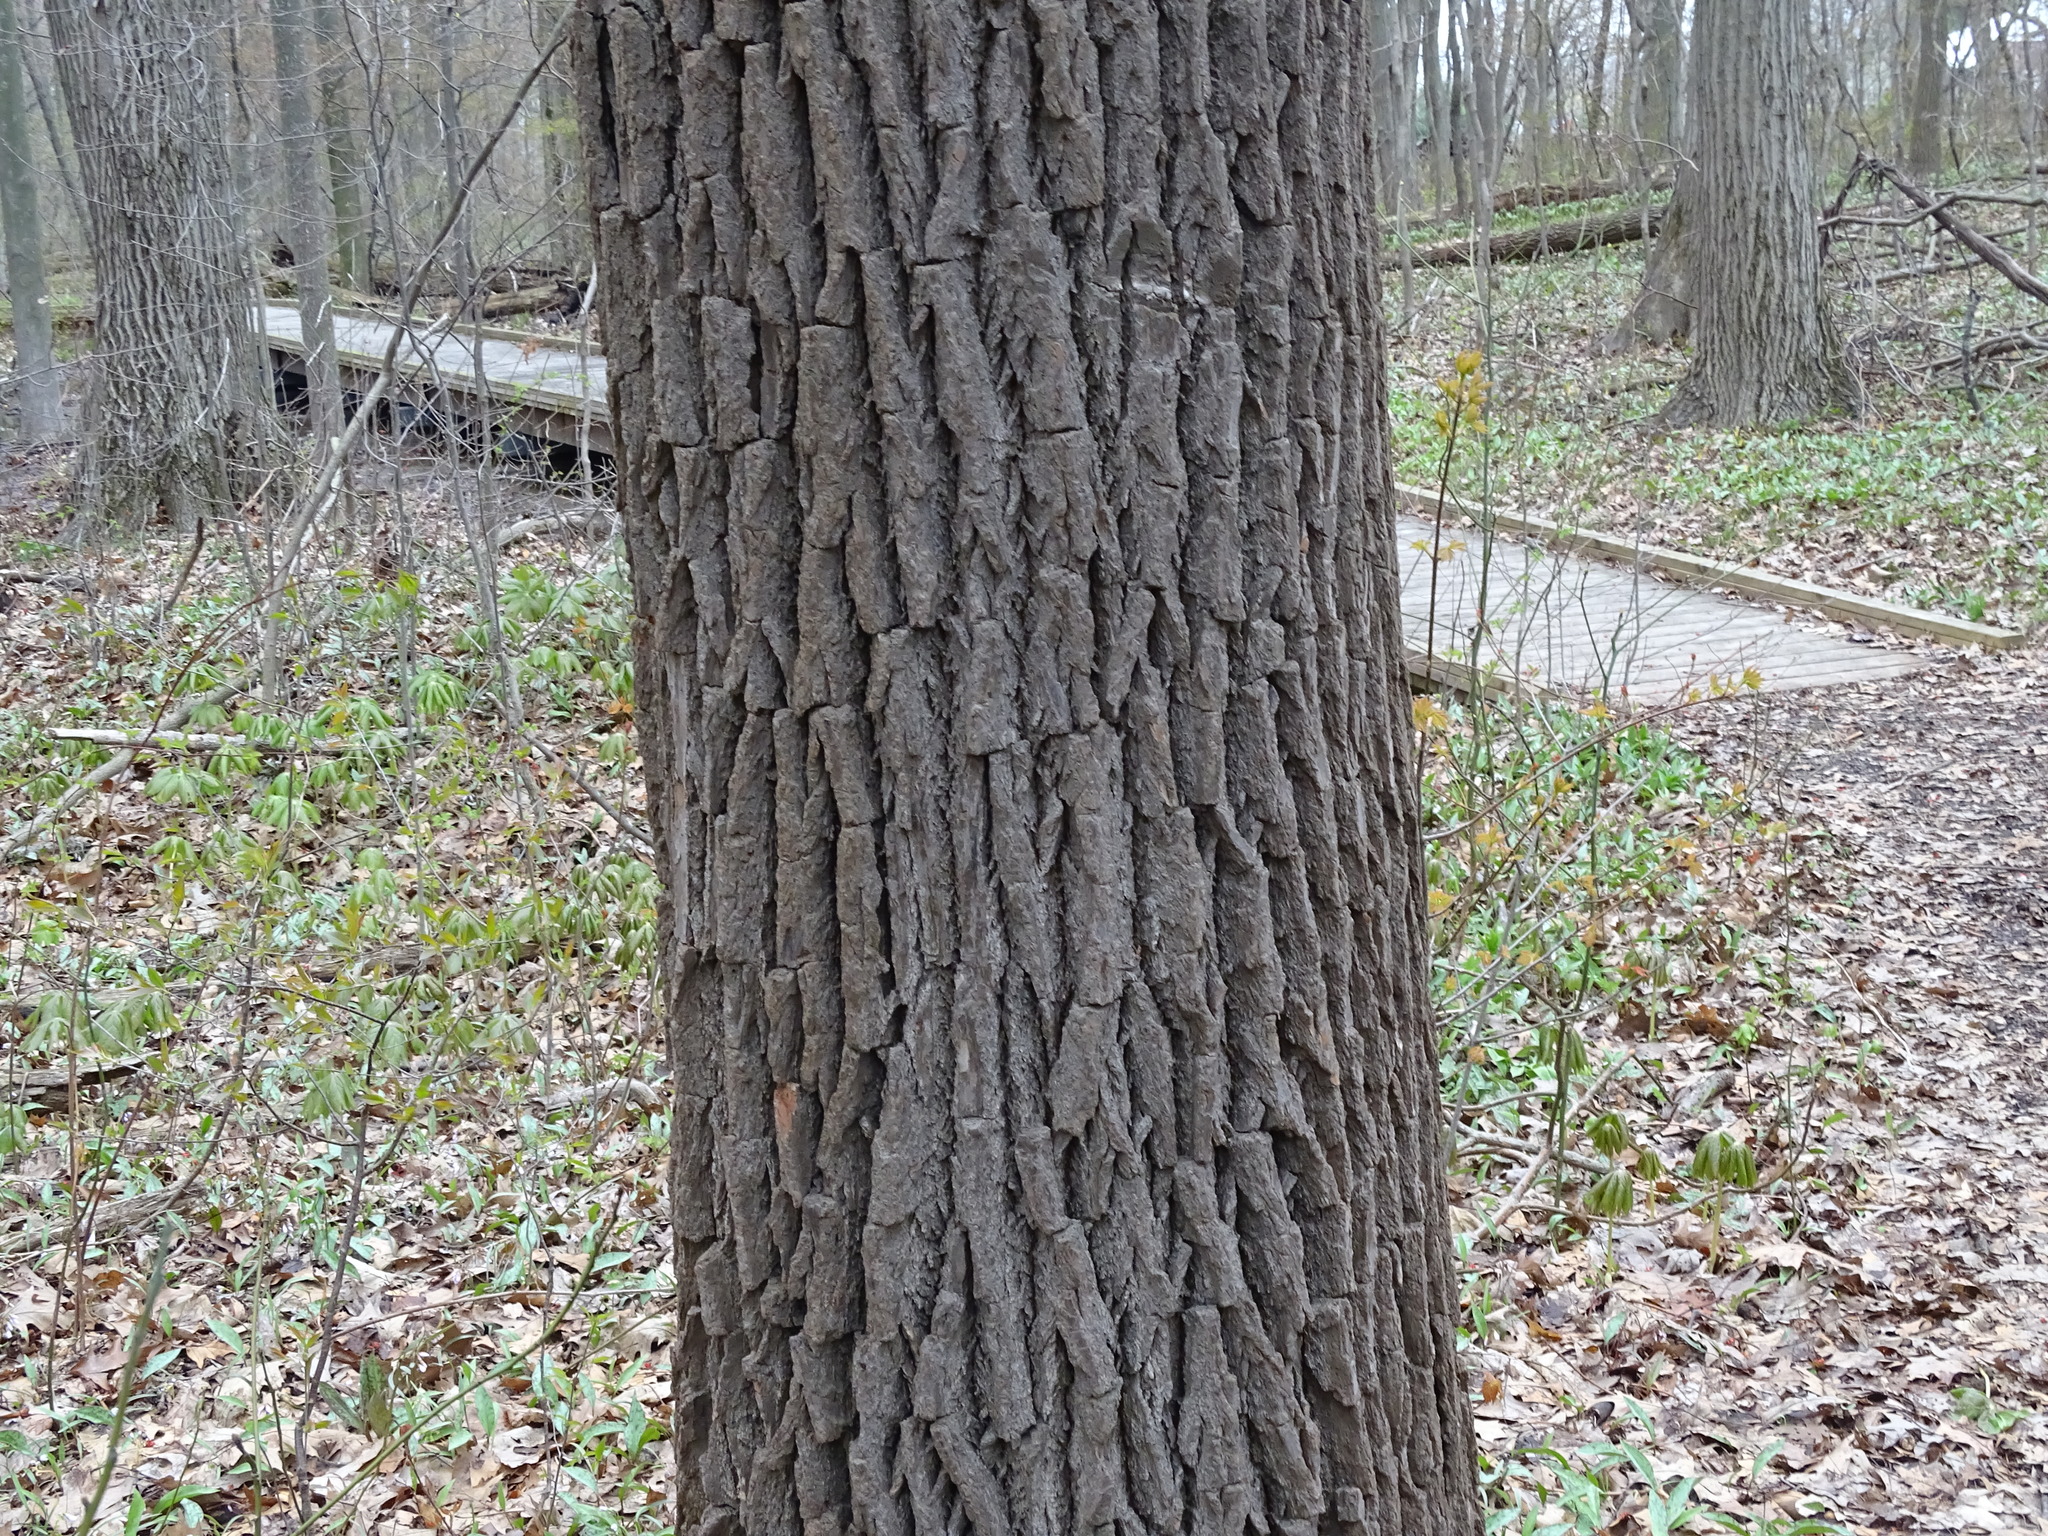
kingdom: Plantae
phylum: Tracheophyta
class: Magnoliopsida
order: Laurales
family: Lauraceae
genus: Sassafras
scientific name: Sassafras albidum
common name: Sassafras
